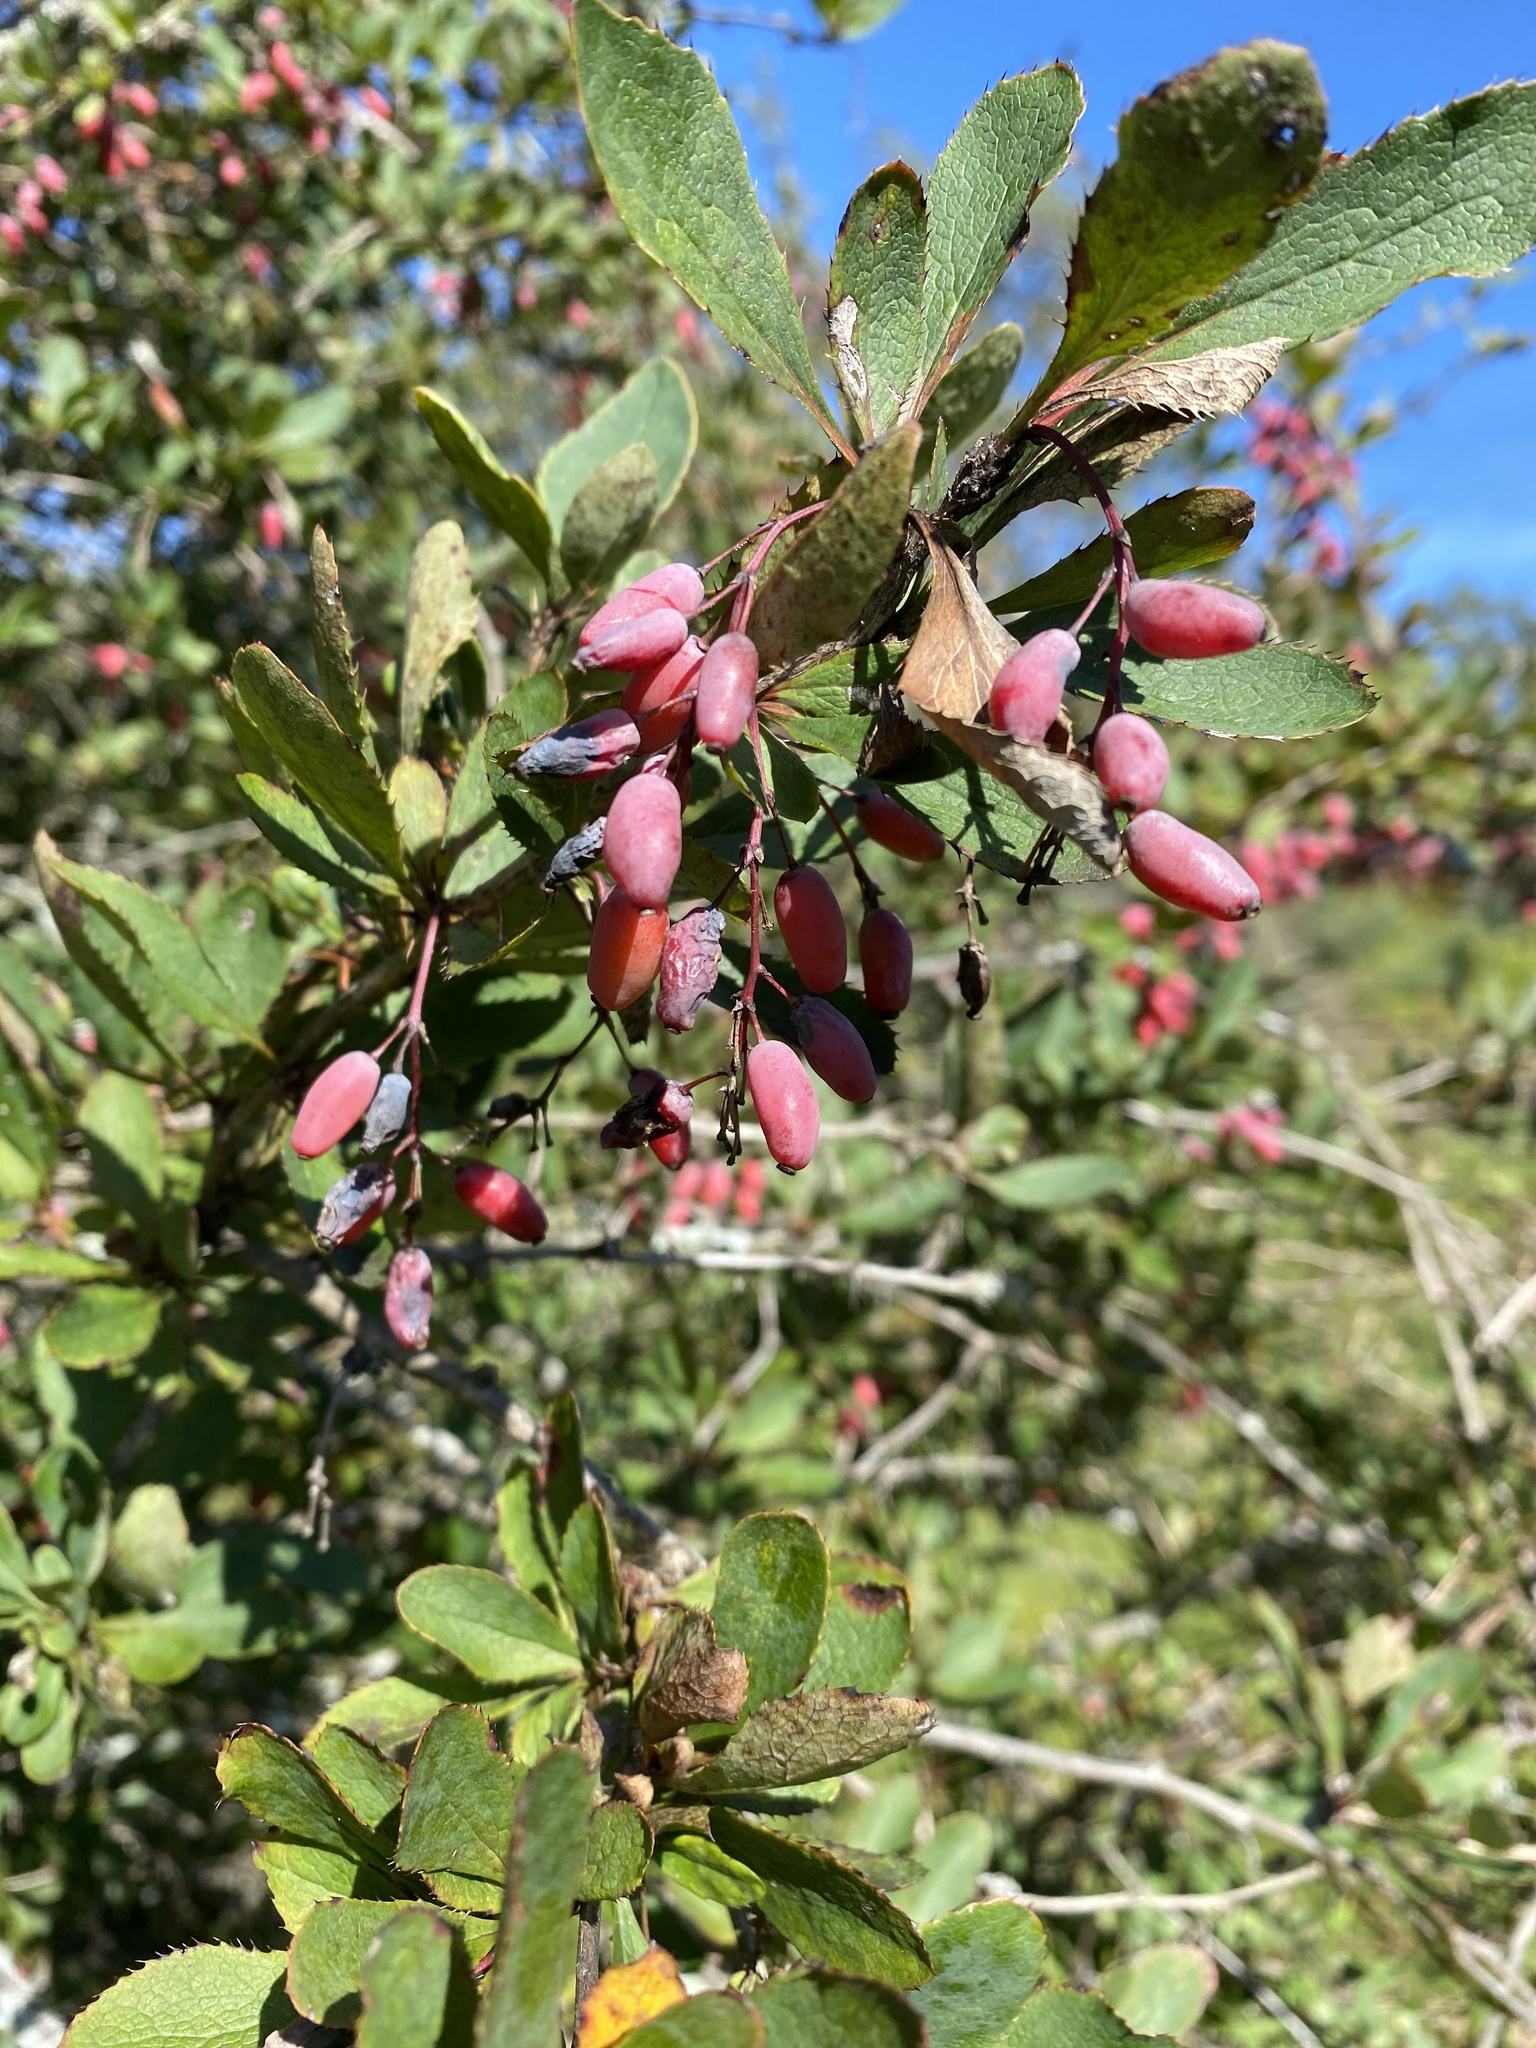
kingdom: Plantae
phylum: Tracheophyta
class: Magnoliopsida
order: Ranunculales
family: Berberidaceae
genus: Berberis
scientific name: Berberis vulgaris
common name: Barberry
